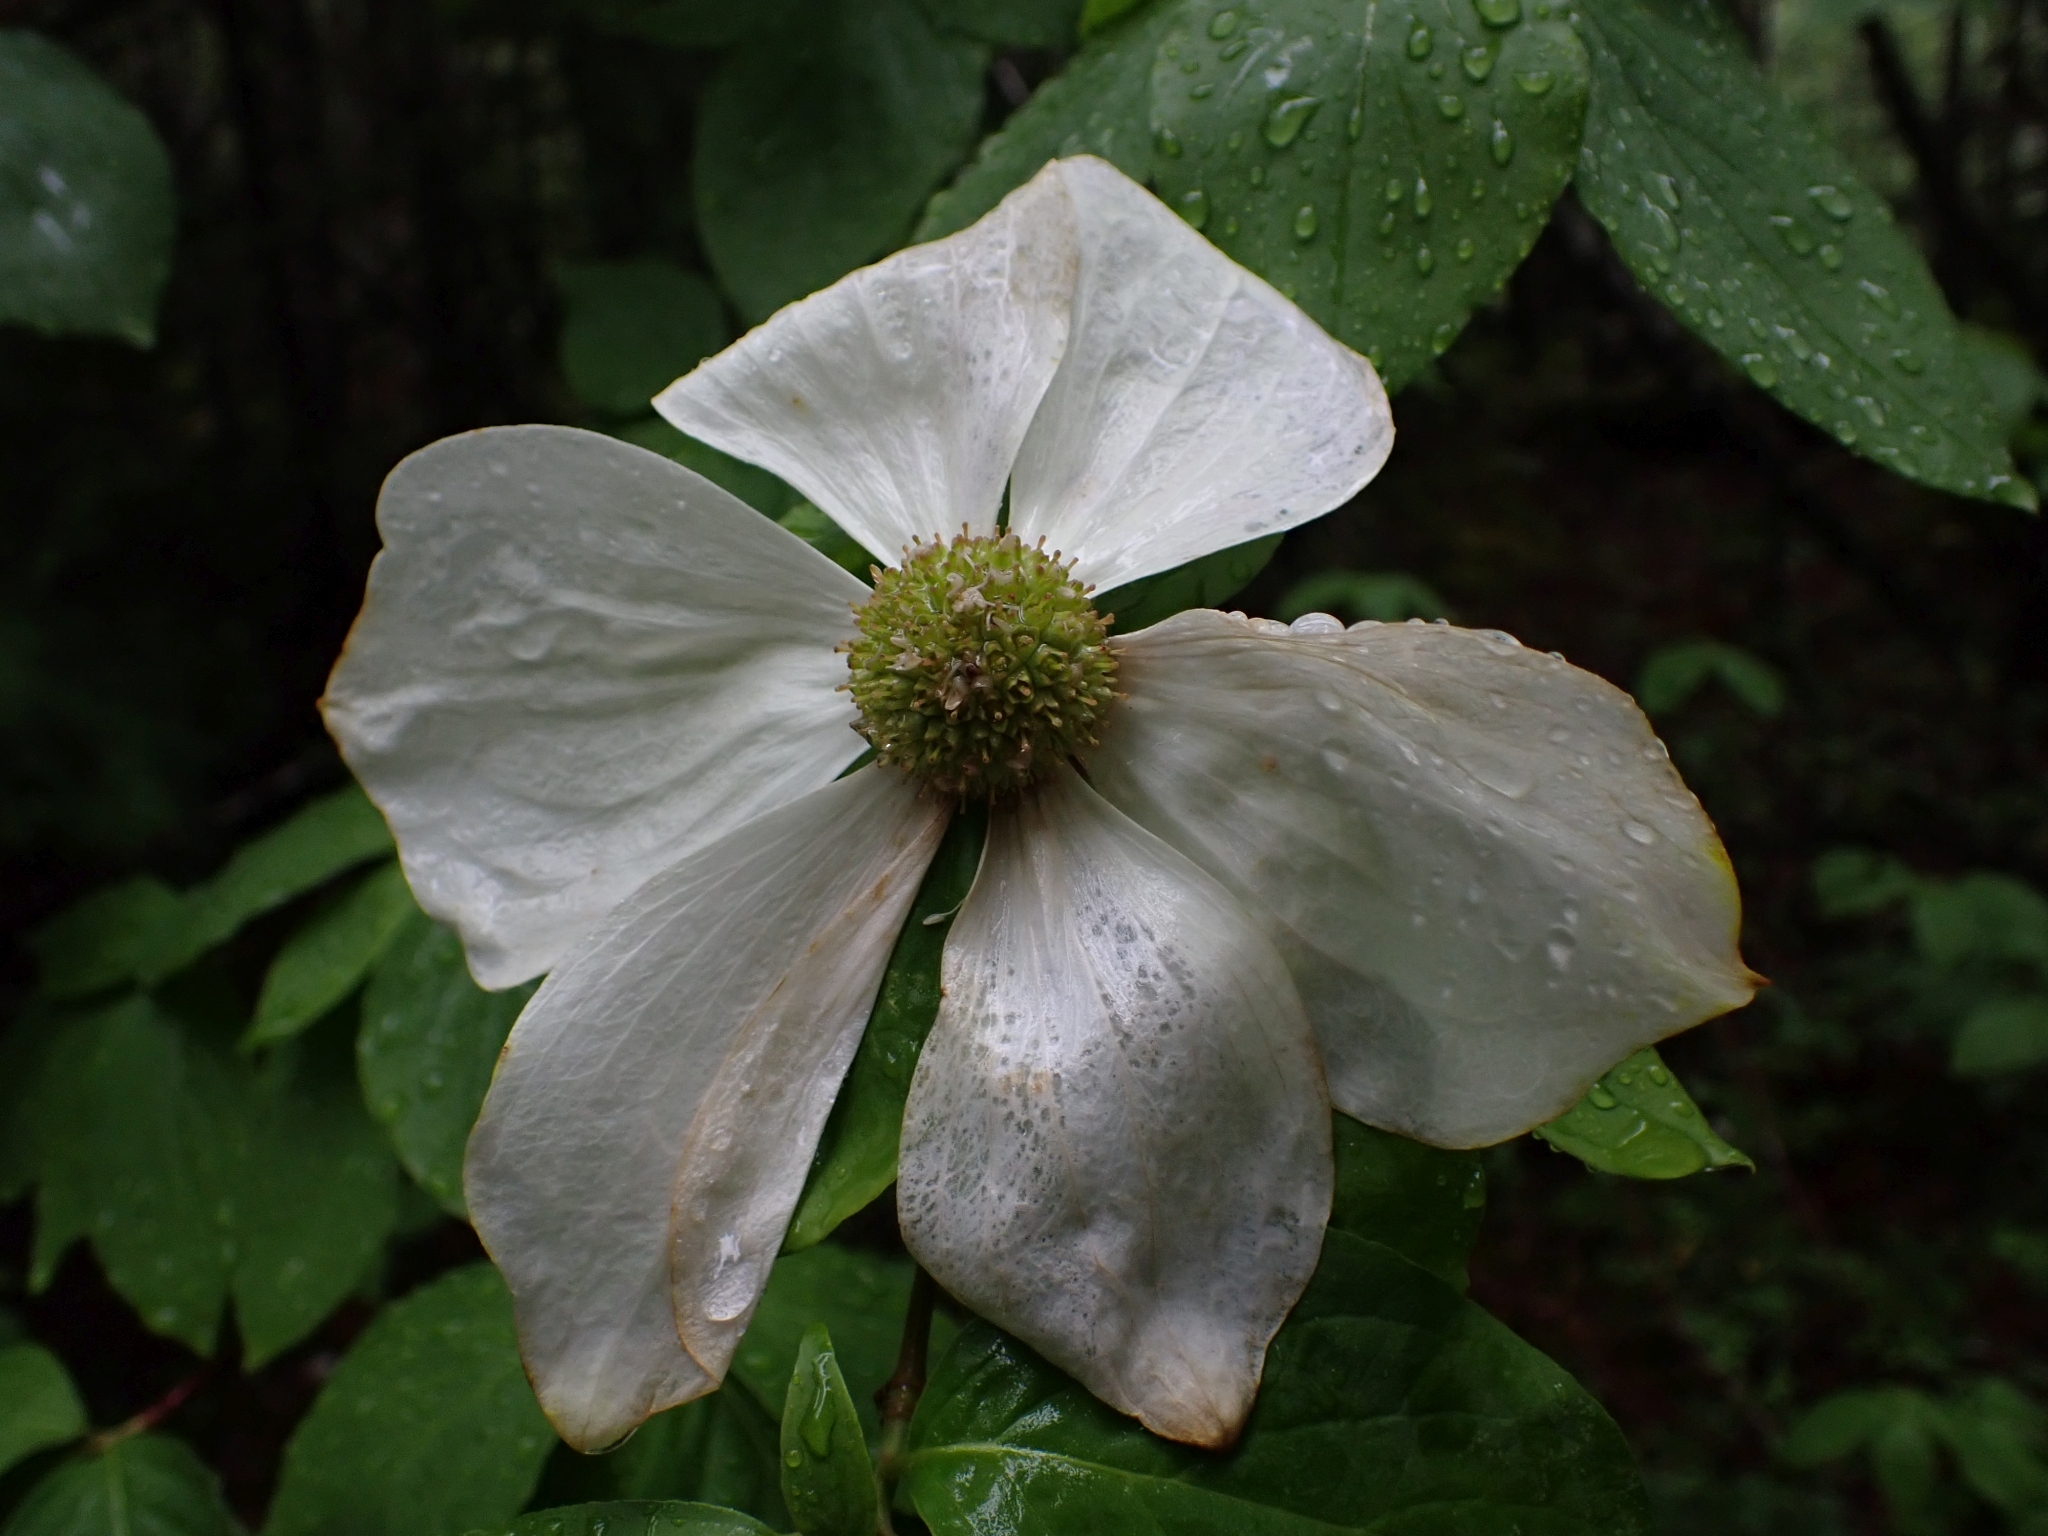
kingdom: Plantae
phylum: Tracheophyta
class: Magnoliopsida
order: Cornales
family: Cornaceae
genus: Cornus
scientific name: Cornus nuttallii
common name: Pacific dogwood
